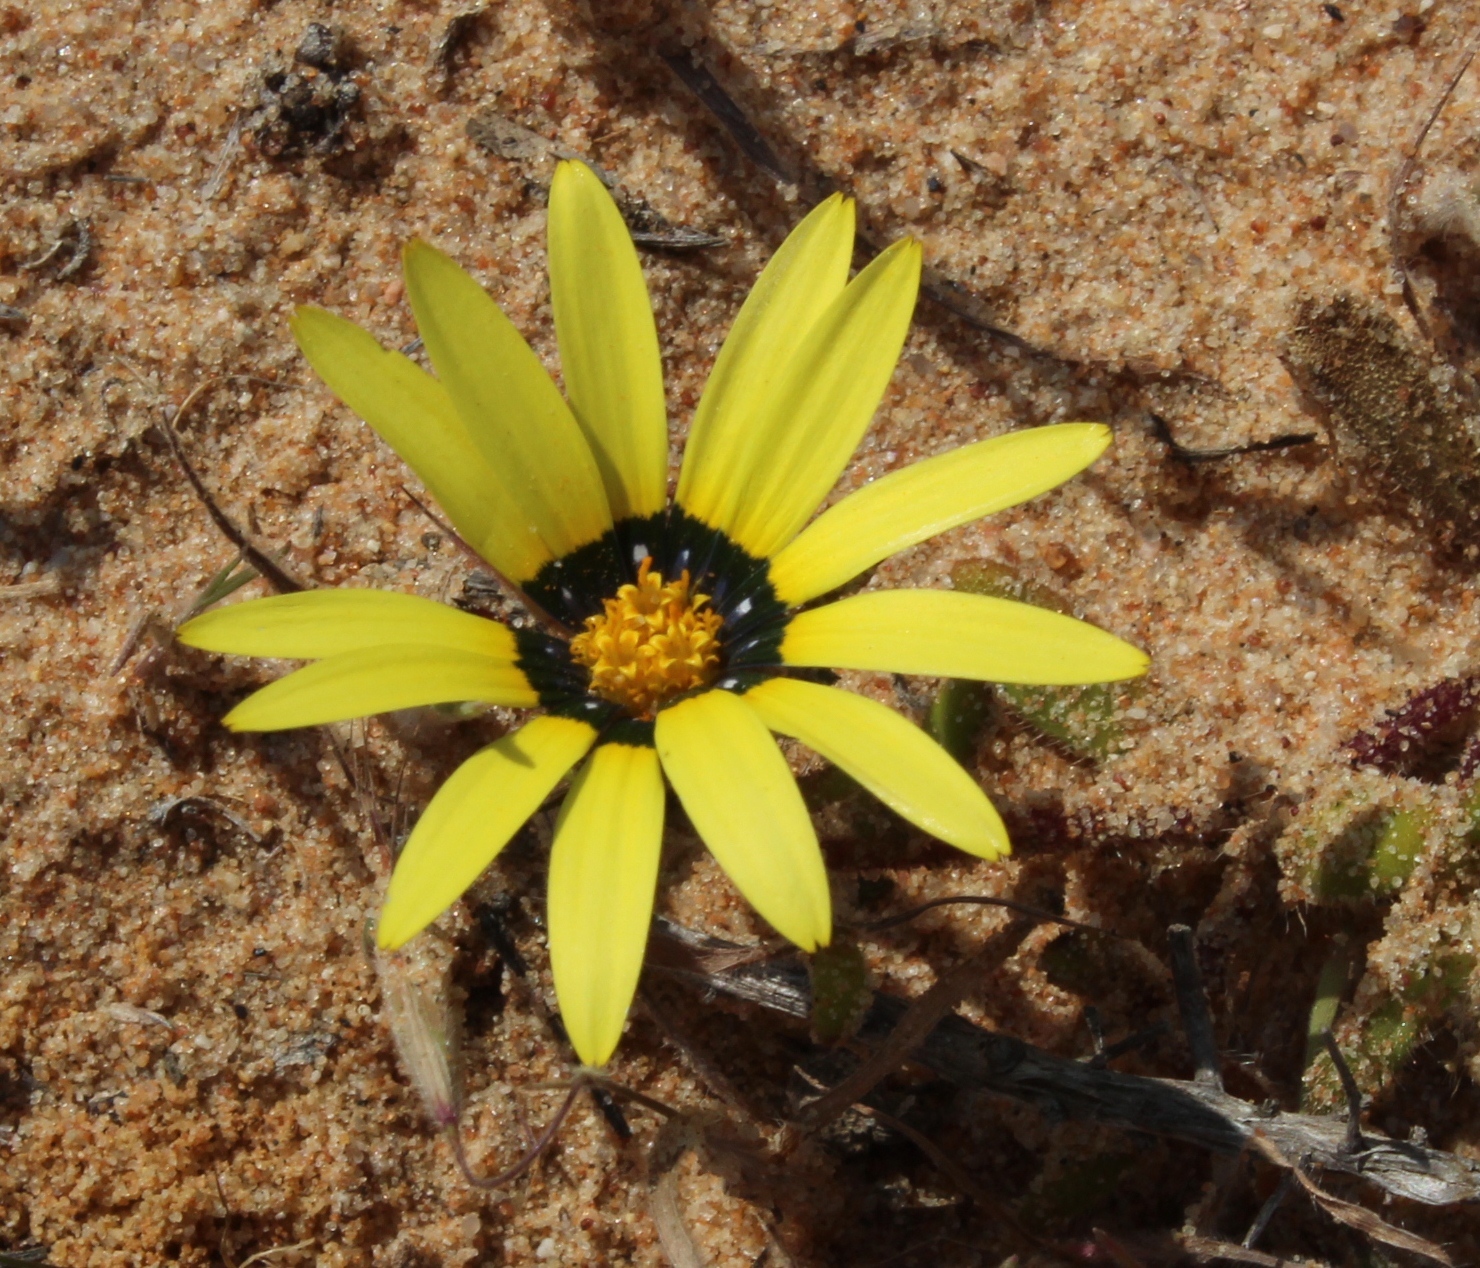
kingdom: Plantae
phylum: Tracheophyta
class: Magnoliopsida
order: Asterales
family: Asteraceae
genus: Gorteria
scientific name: Gorteria diffusa
